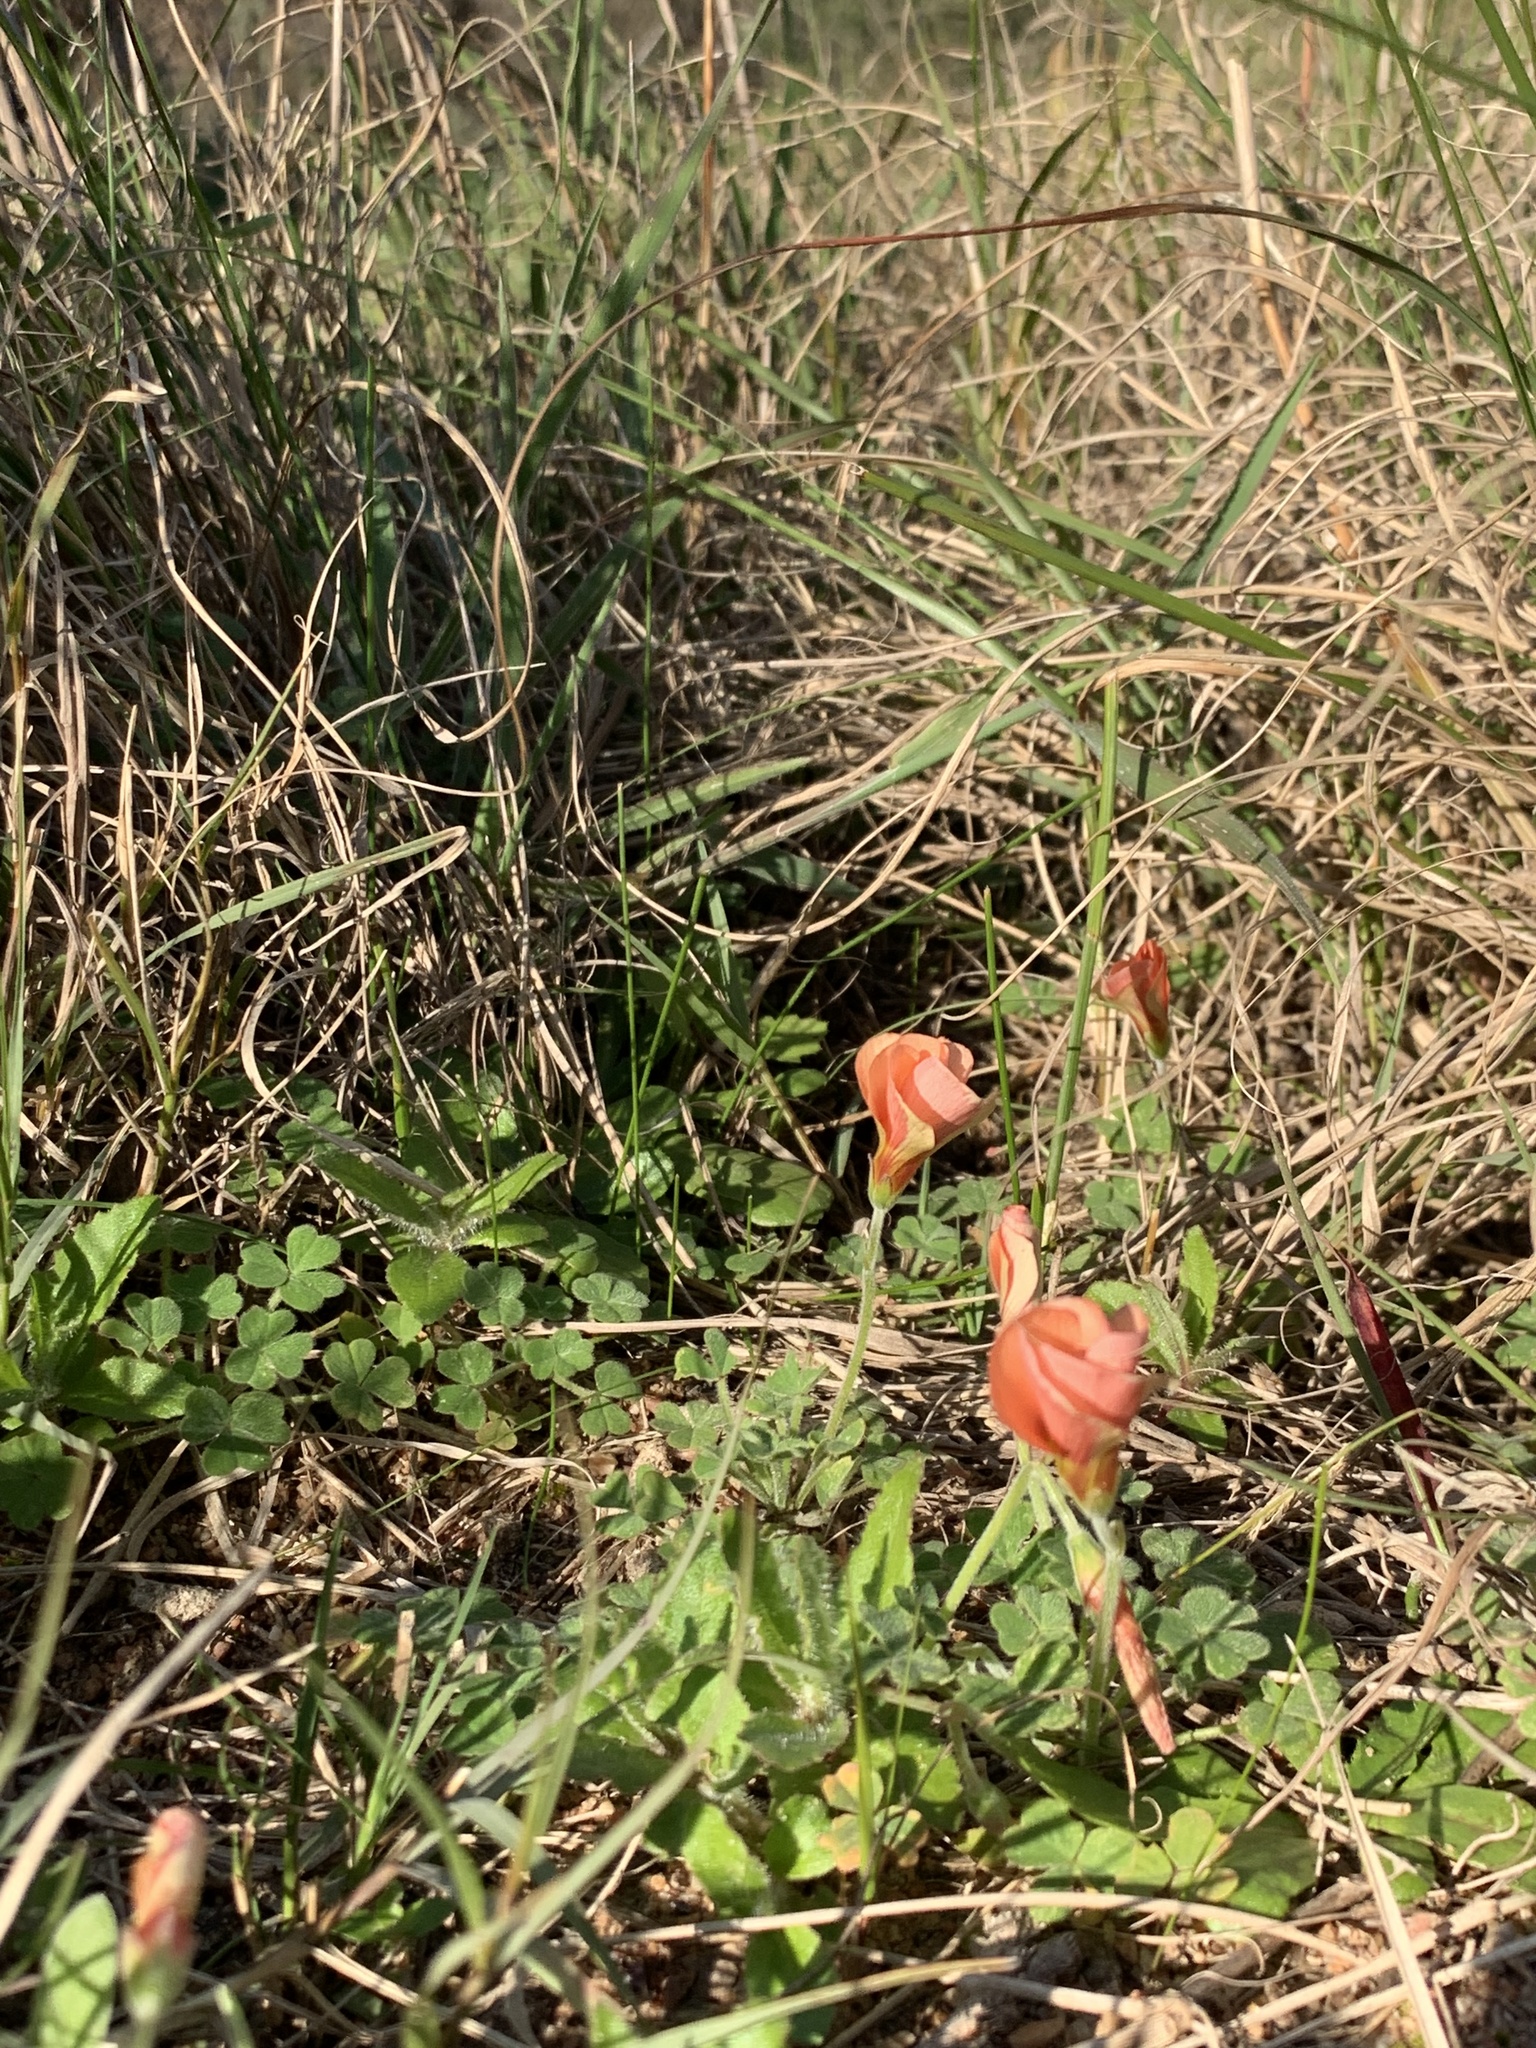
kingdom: Plantae
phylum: Tracheophyta
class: Magnoliopsida
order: Oxalidales
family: Oxalidaceae
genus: Oxalis
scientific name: Oxalis obtusa
